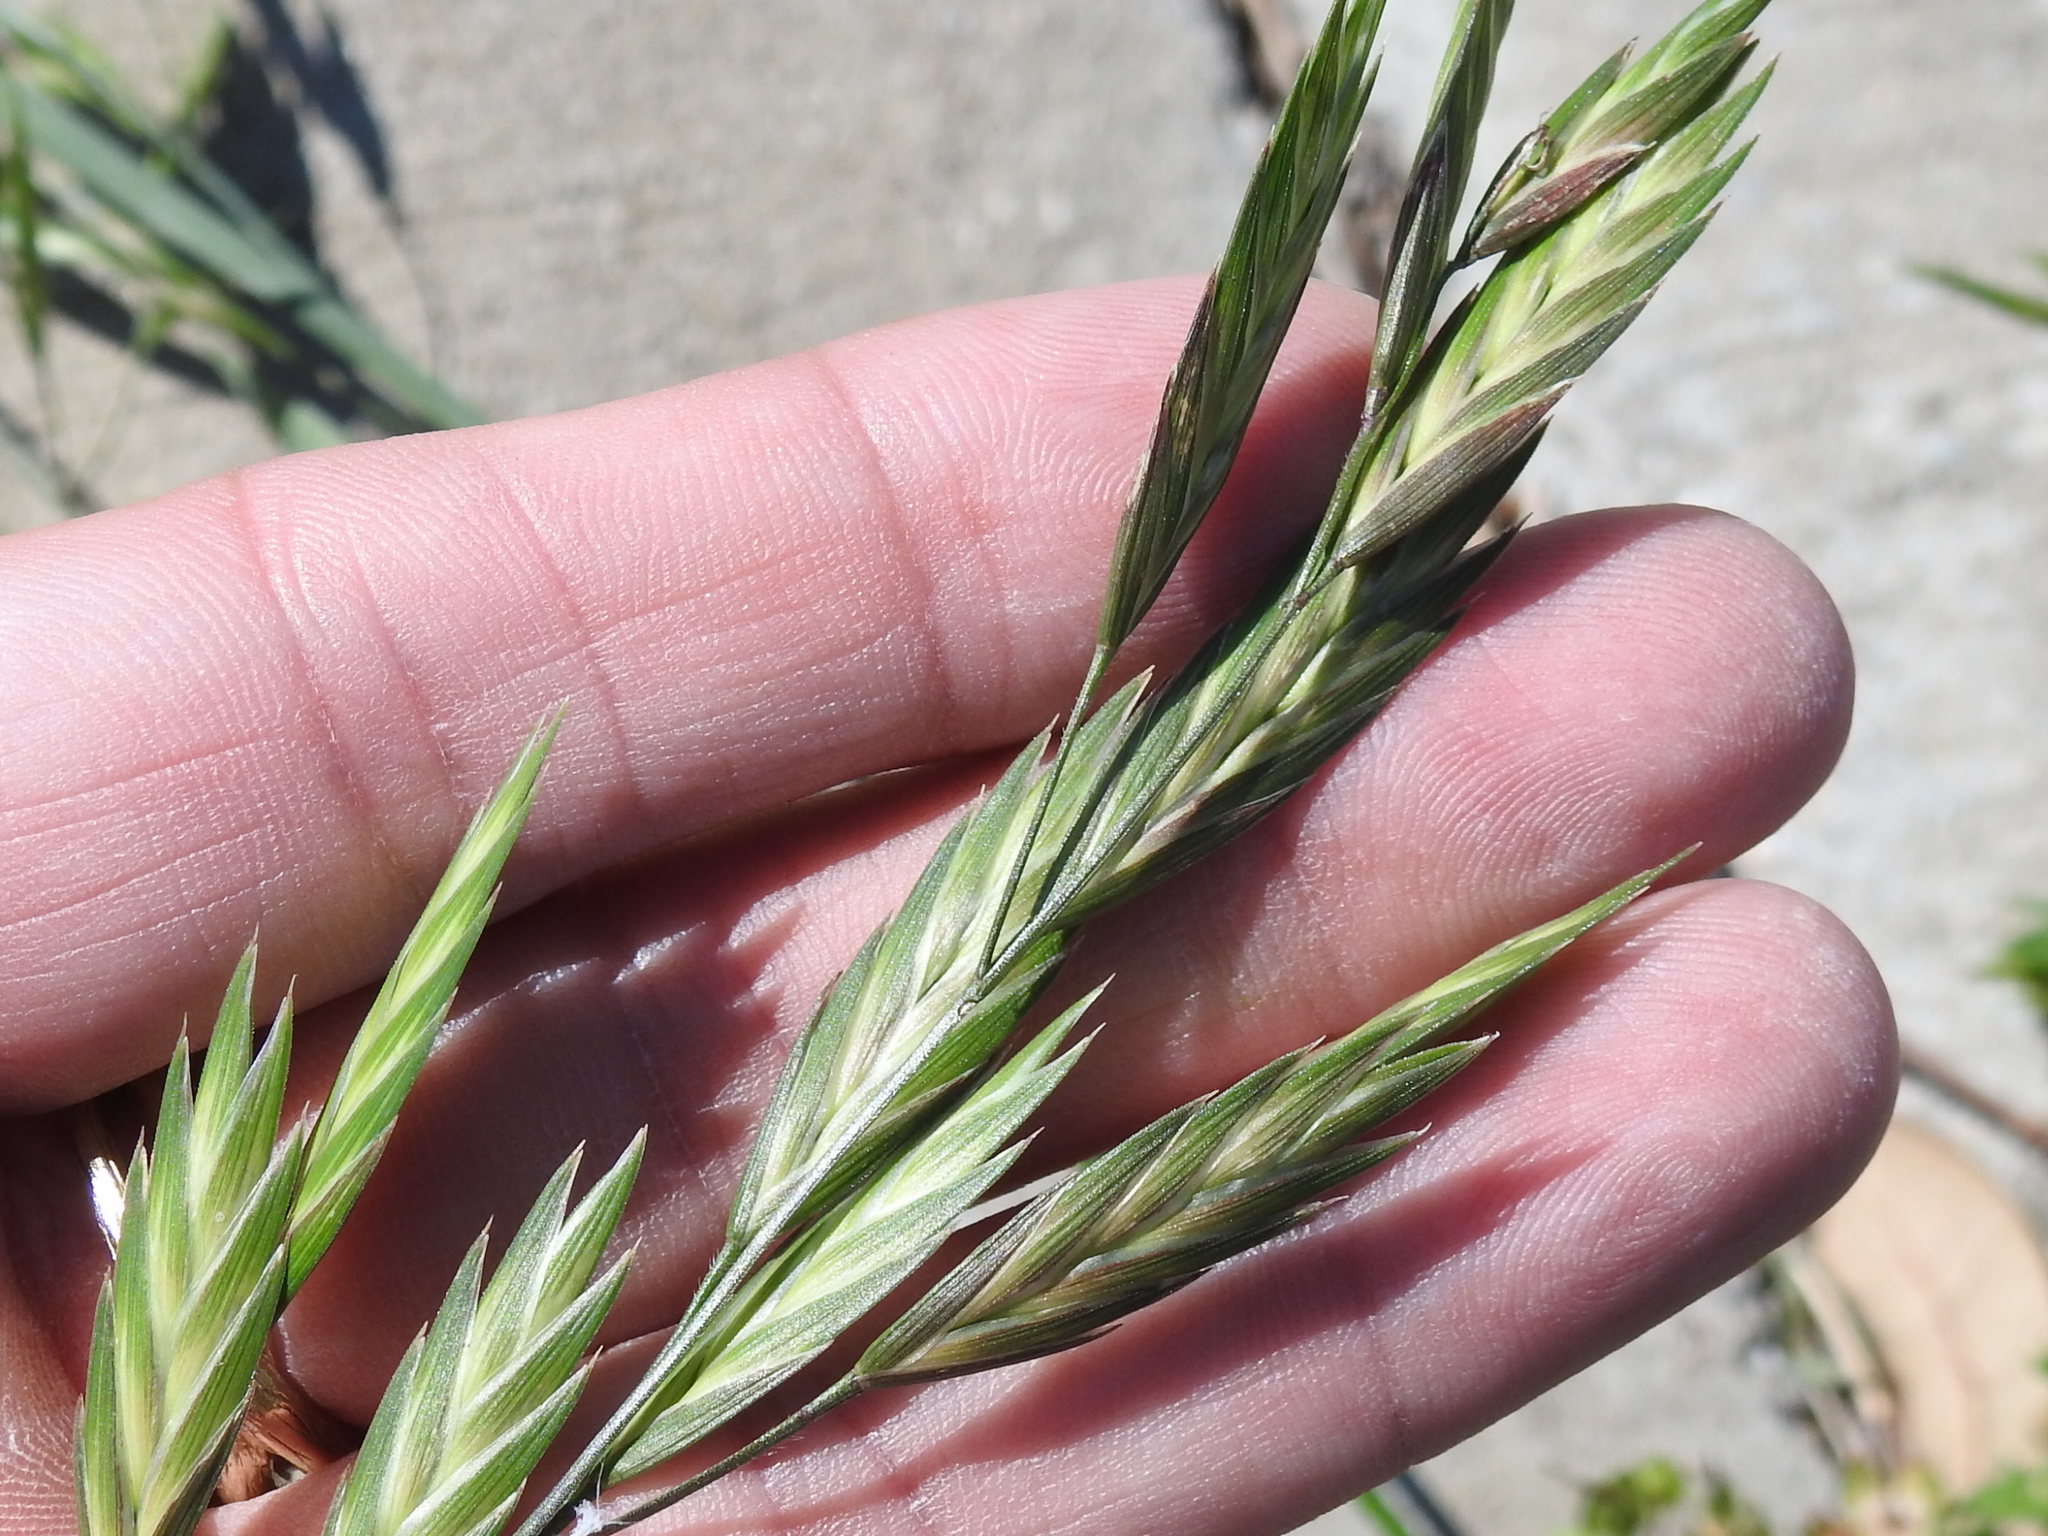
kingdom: Plantae
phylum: Tracheophyta
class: Liliopsida
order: Poales
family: Poaceae
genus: Bromus
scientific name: Bromus catharticus
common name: Rescuegrass
